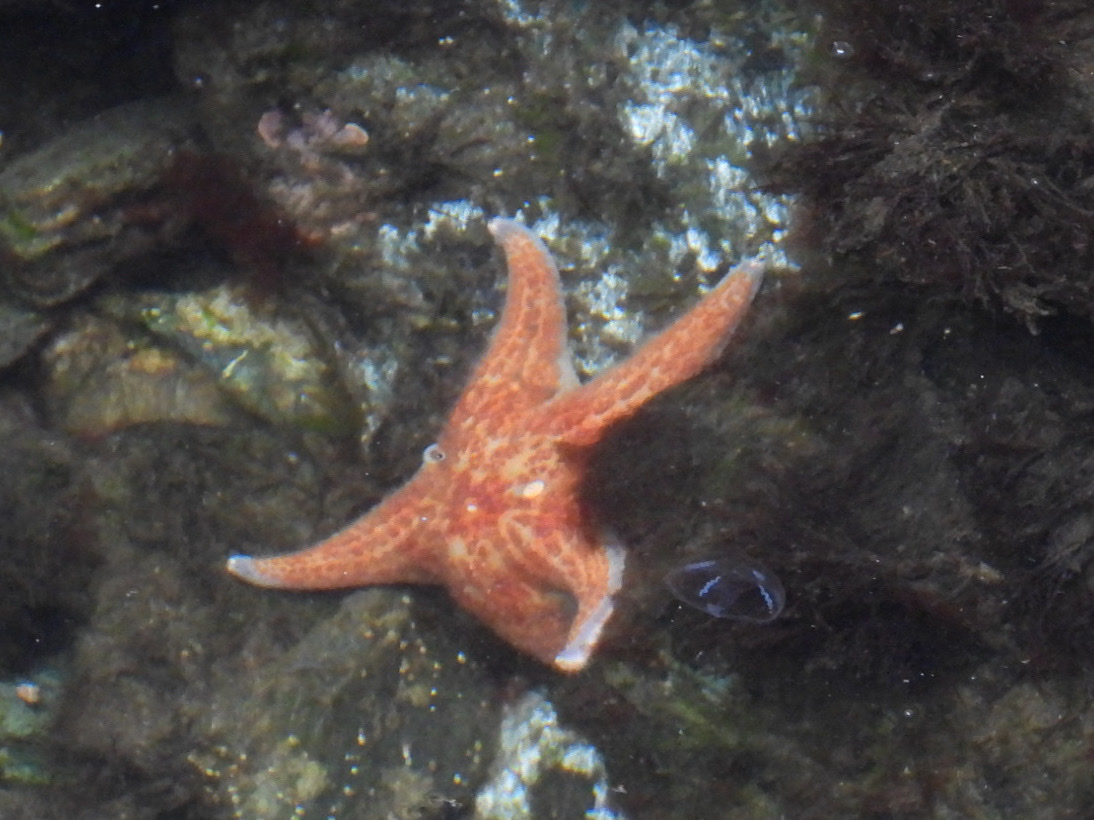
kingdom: Animalia
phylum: Echinodermata
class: Asteroidea
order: Valvatida
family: Asteropseidae
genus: Dermasterias
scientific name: Dermasterias imbricata
